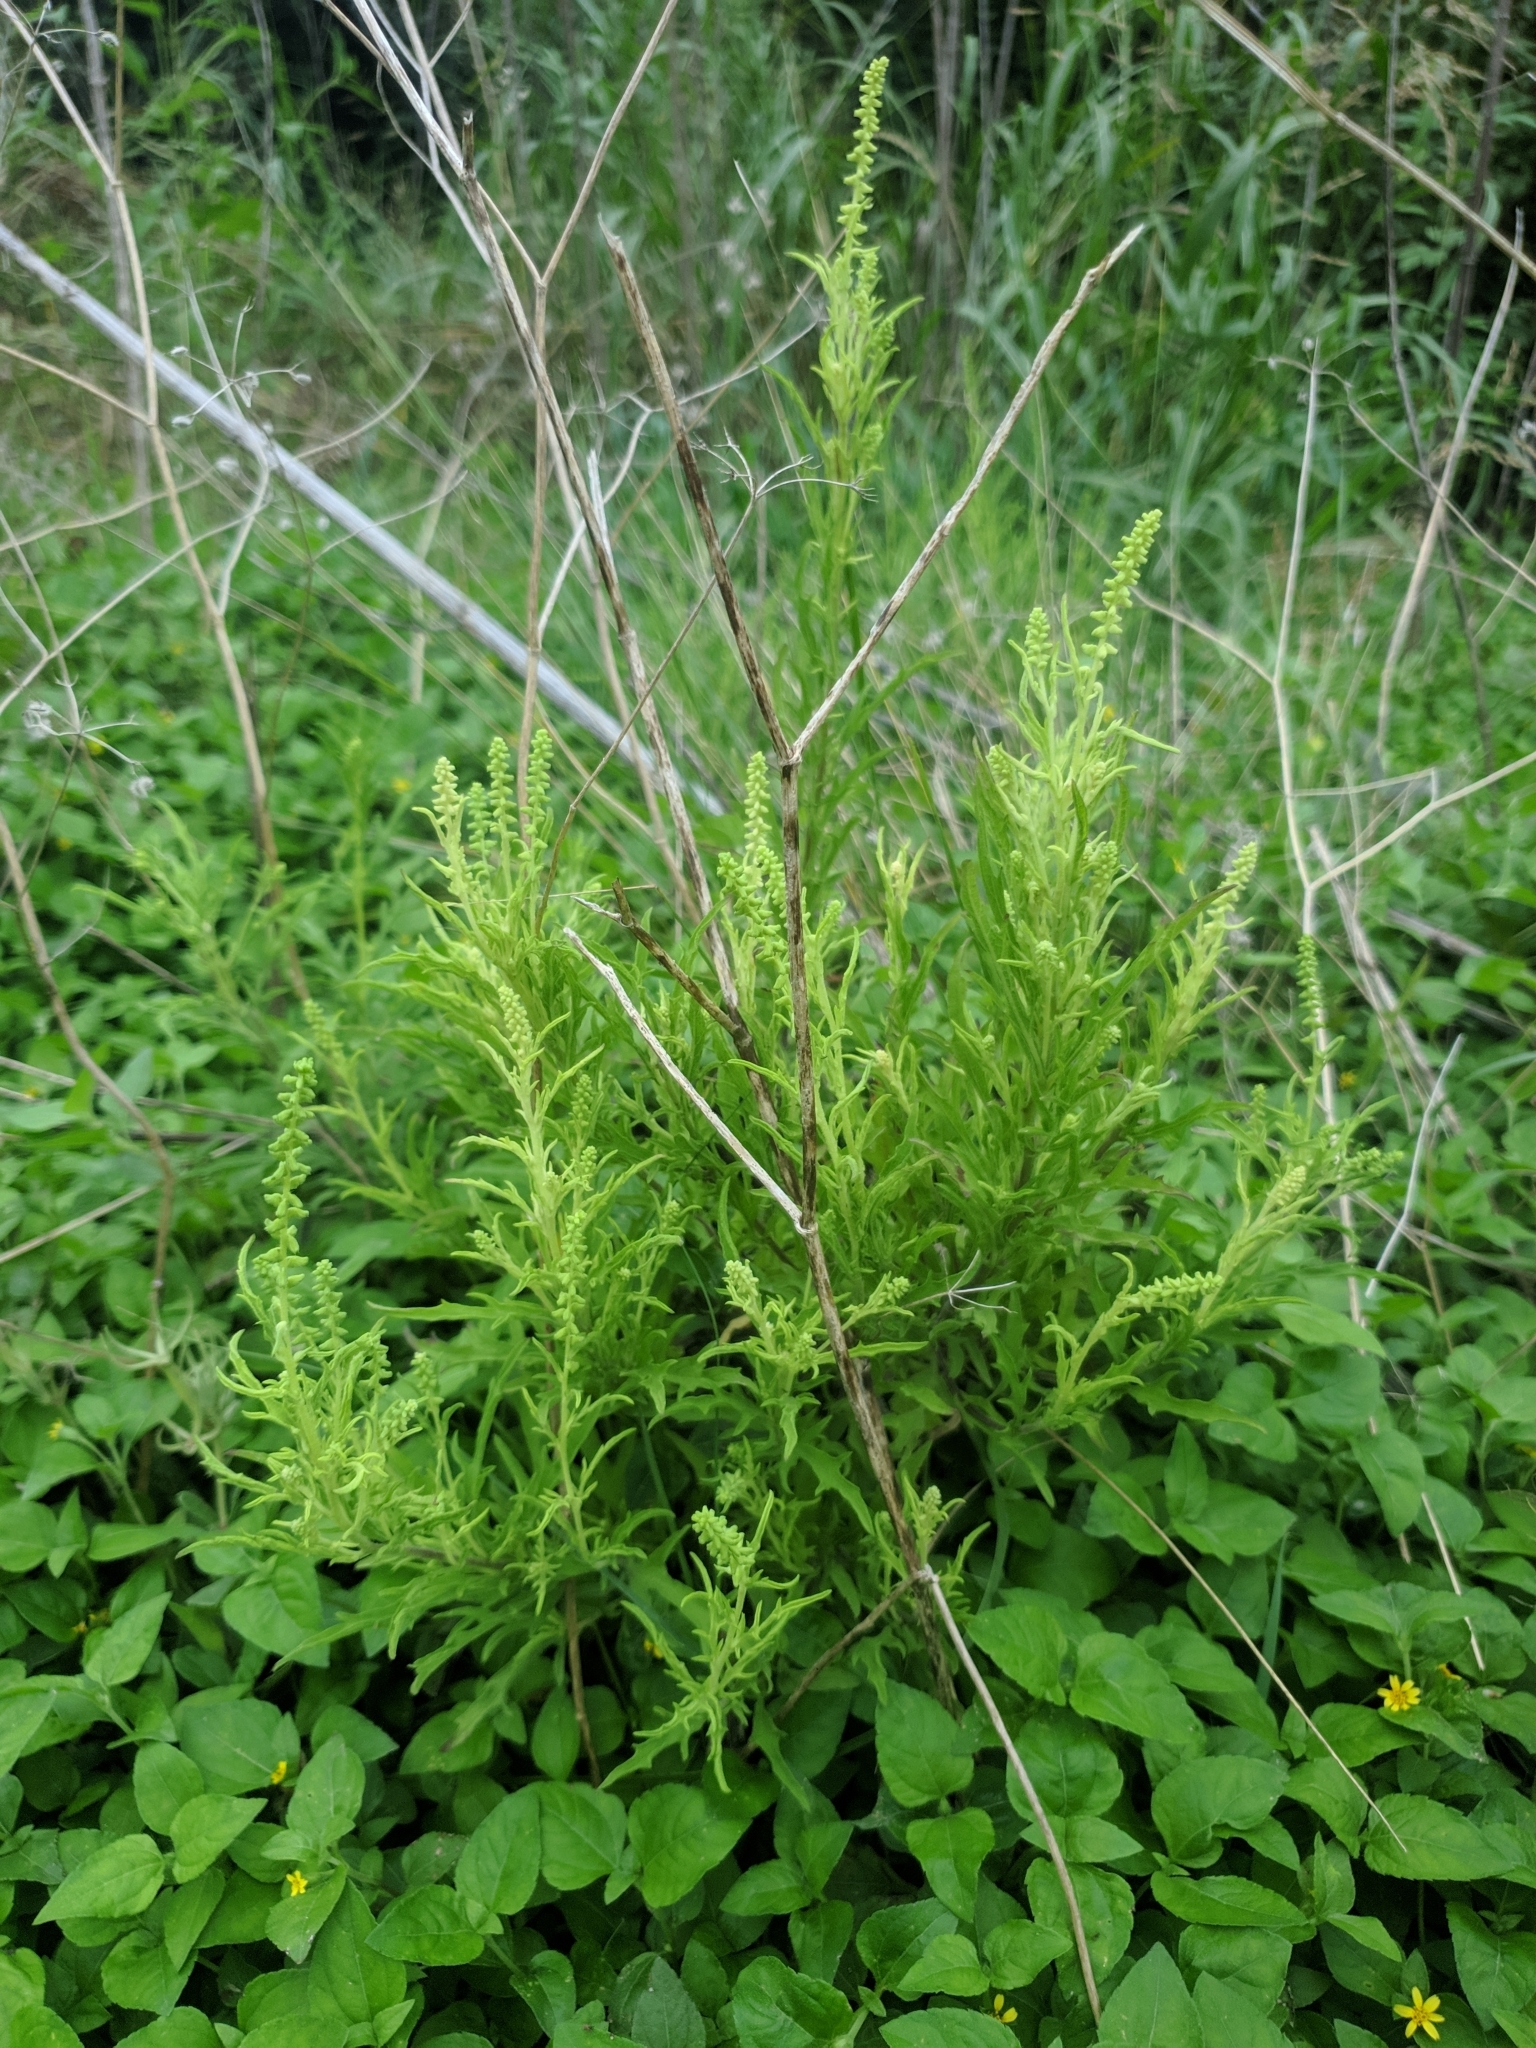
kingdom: Plantae
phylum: Tracheophyta
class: Magnoliopsida
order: Asterales
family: Asteraceae
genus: Ambrosia
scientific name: Ambrosia psilostachya
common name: Perennial ragweed
